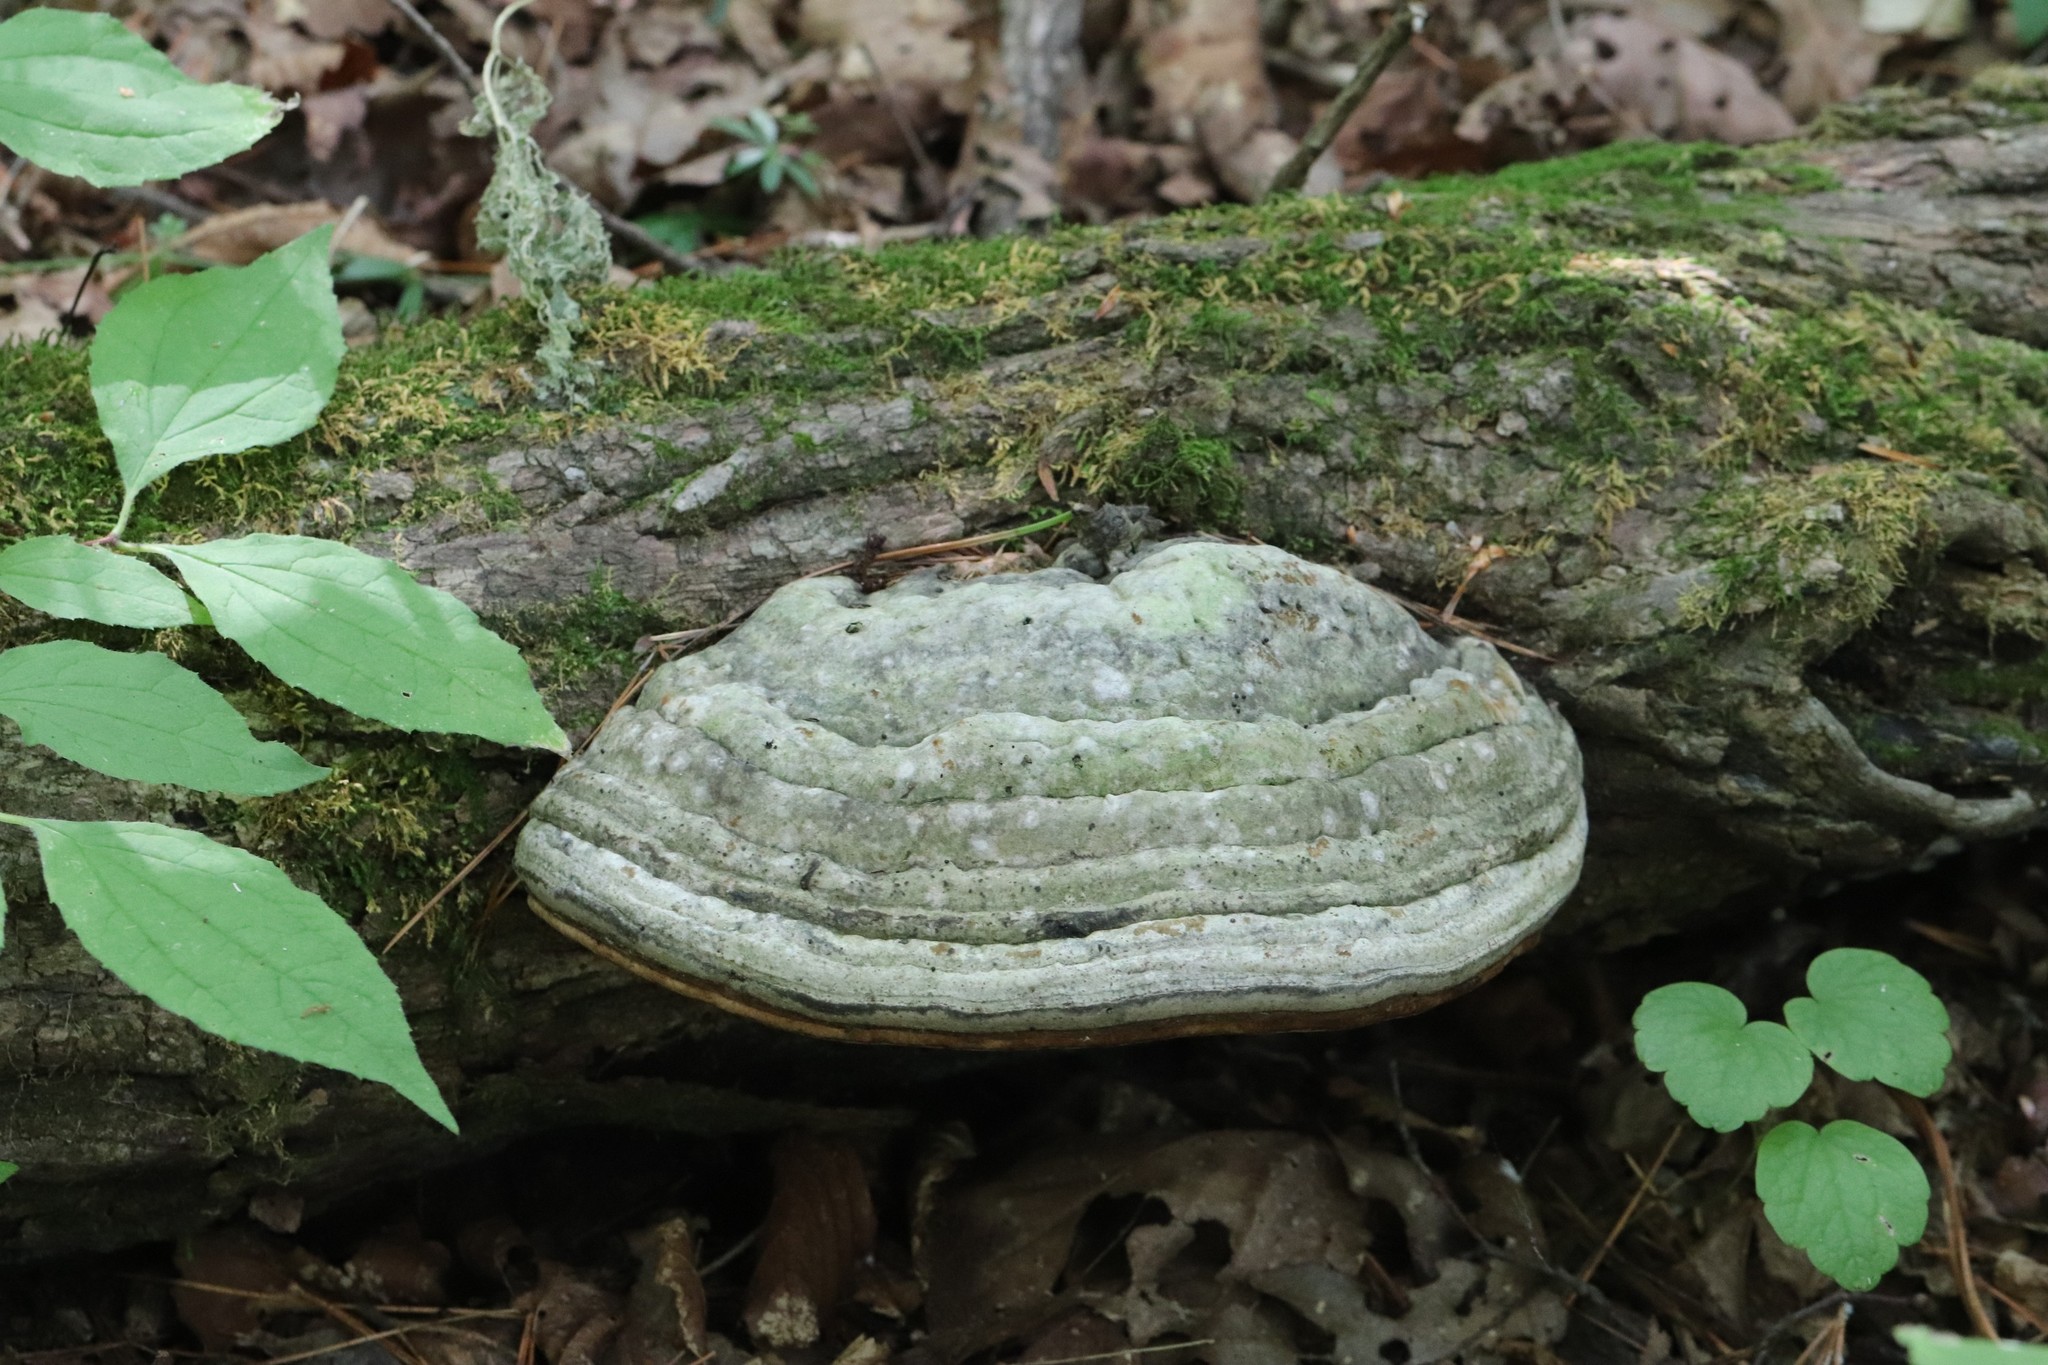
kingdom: Fungi
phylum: Basidiomycota
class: Agaricomycetes
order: Polyporales
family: Polyporaceae
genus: Fomes
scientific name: Fomes fomentarius
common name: Hoof fungus
